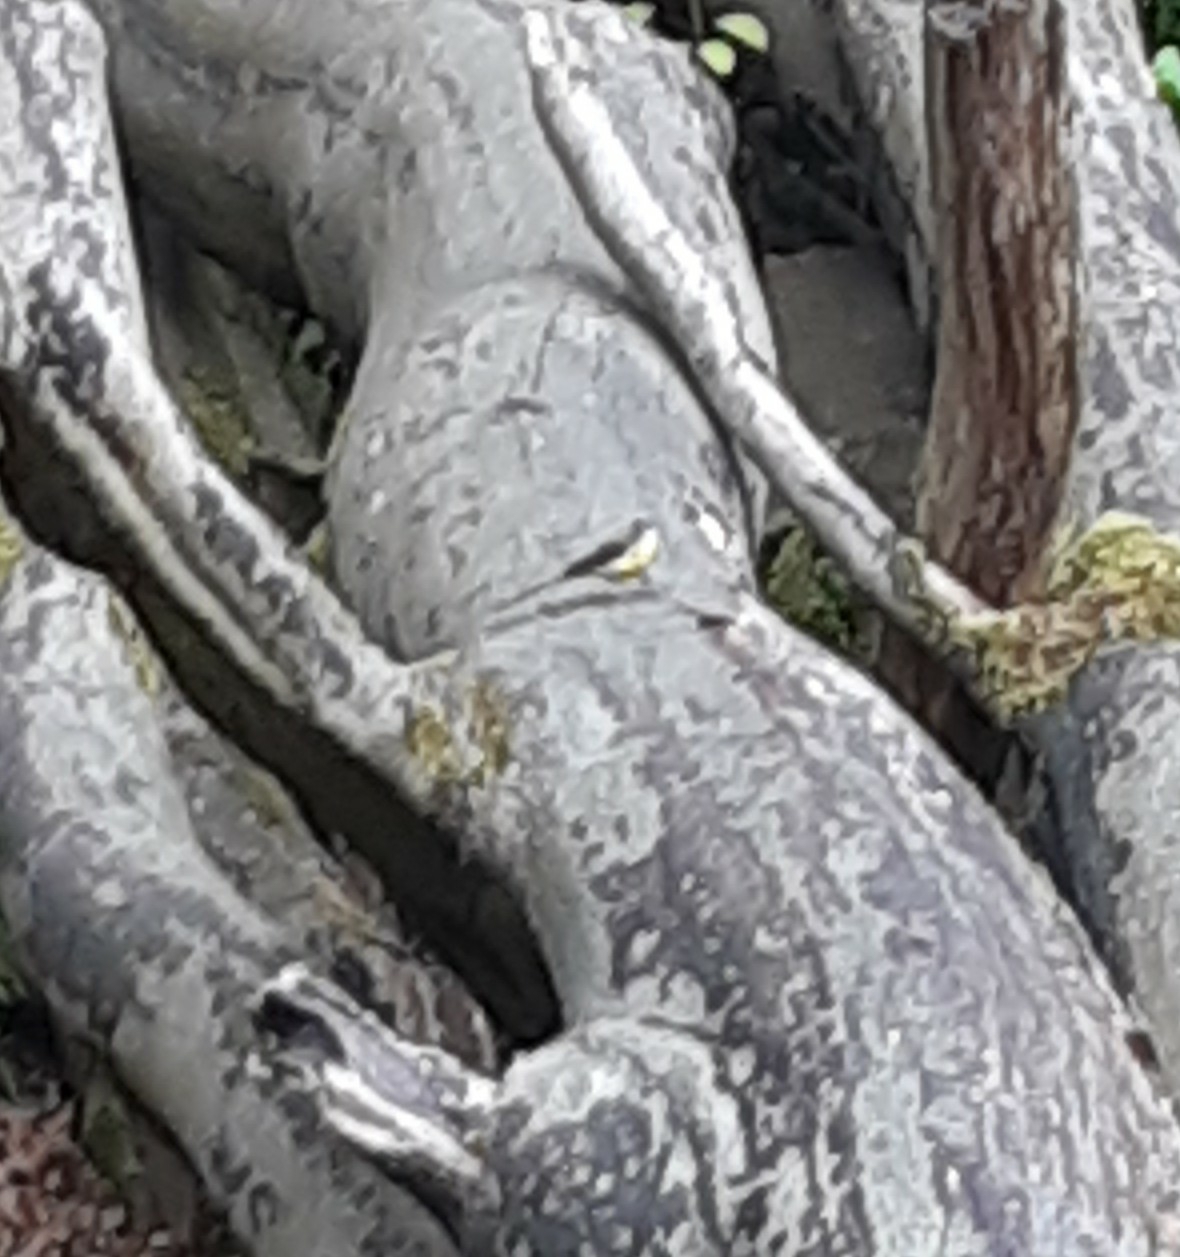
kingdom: Animalia
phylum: Chordata
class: Aves
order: Passeriformes
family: Motacillidae
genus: Motacilla
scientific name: Motacilla cinerea
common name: Grey wagtail
